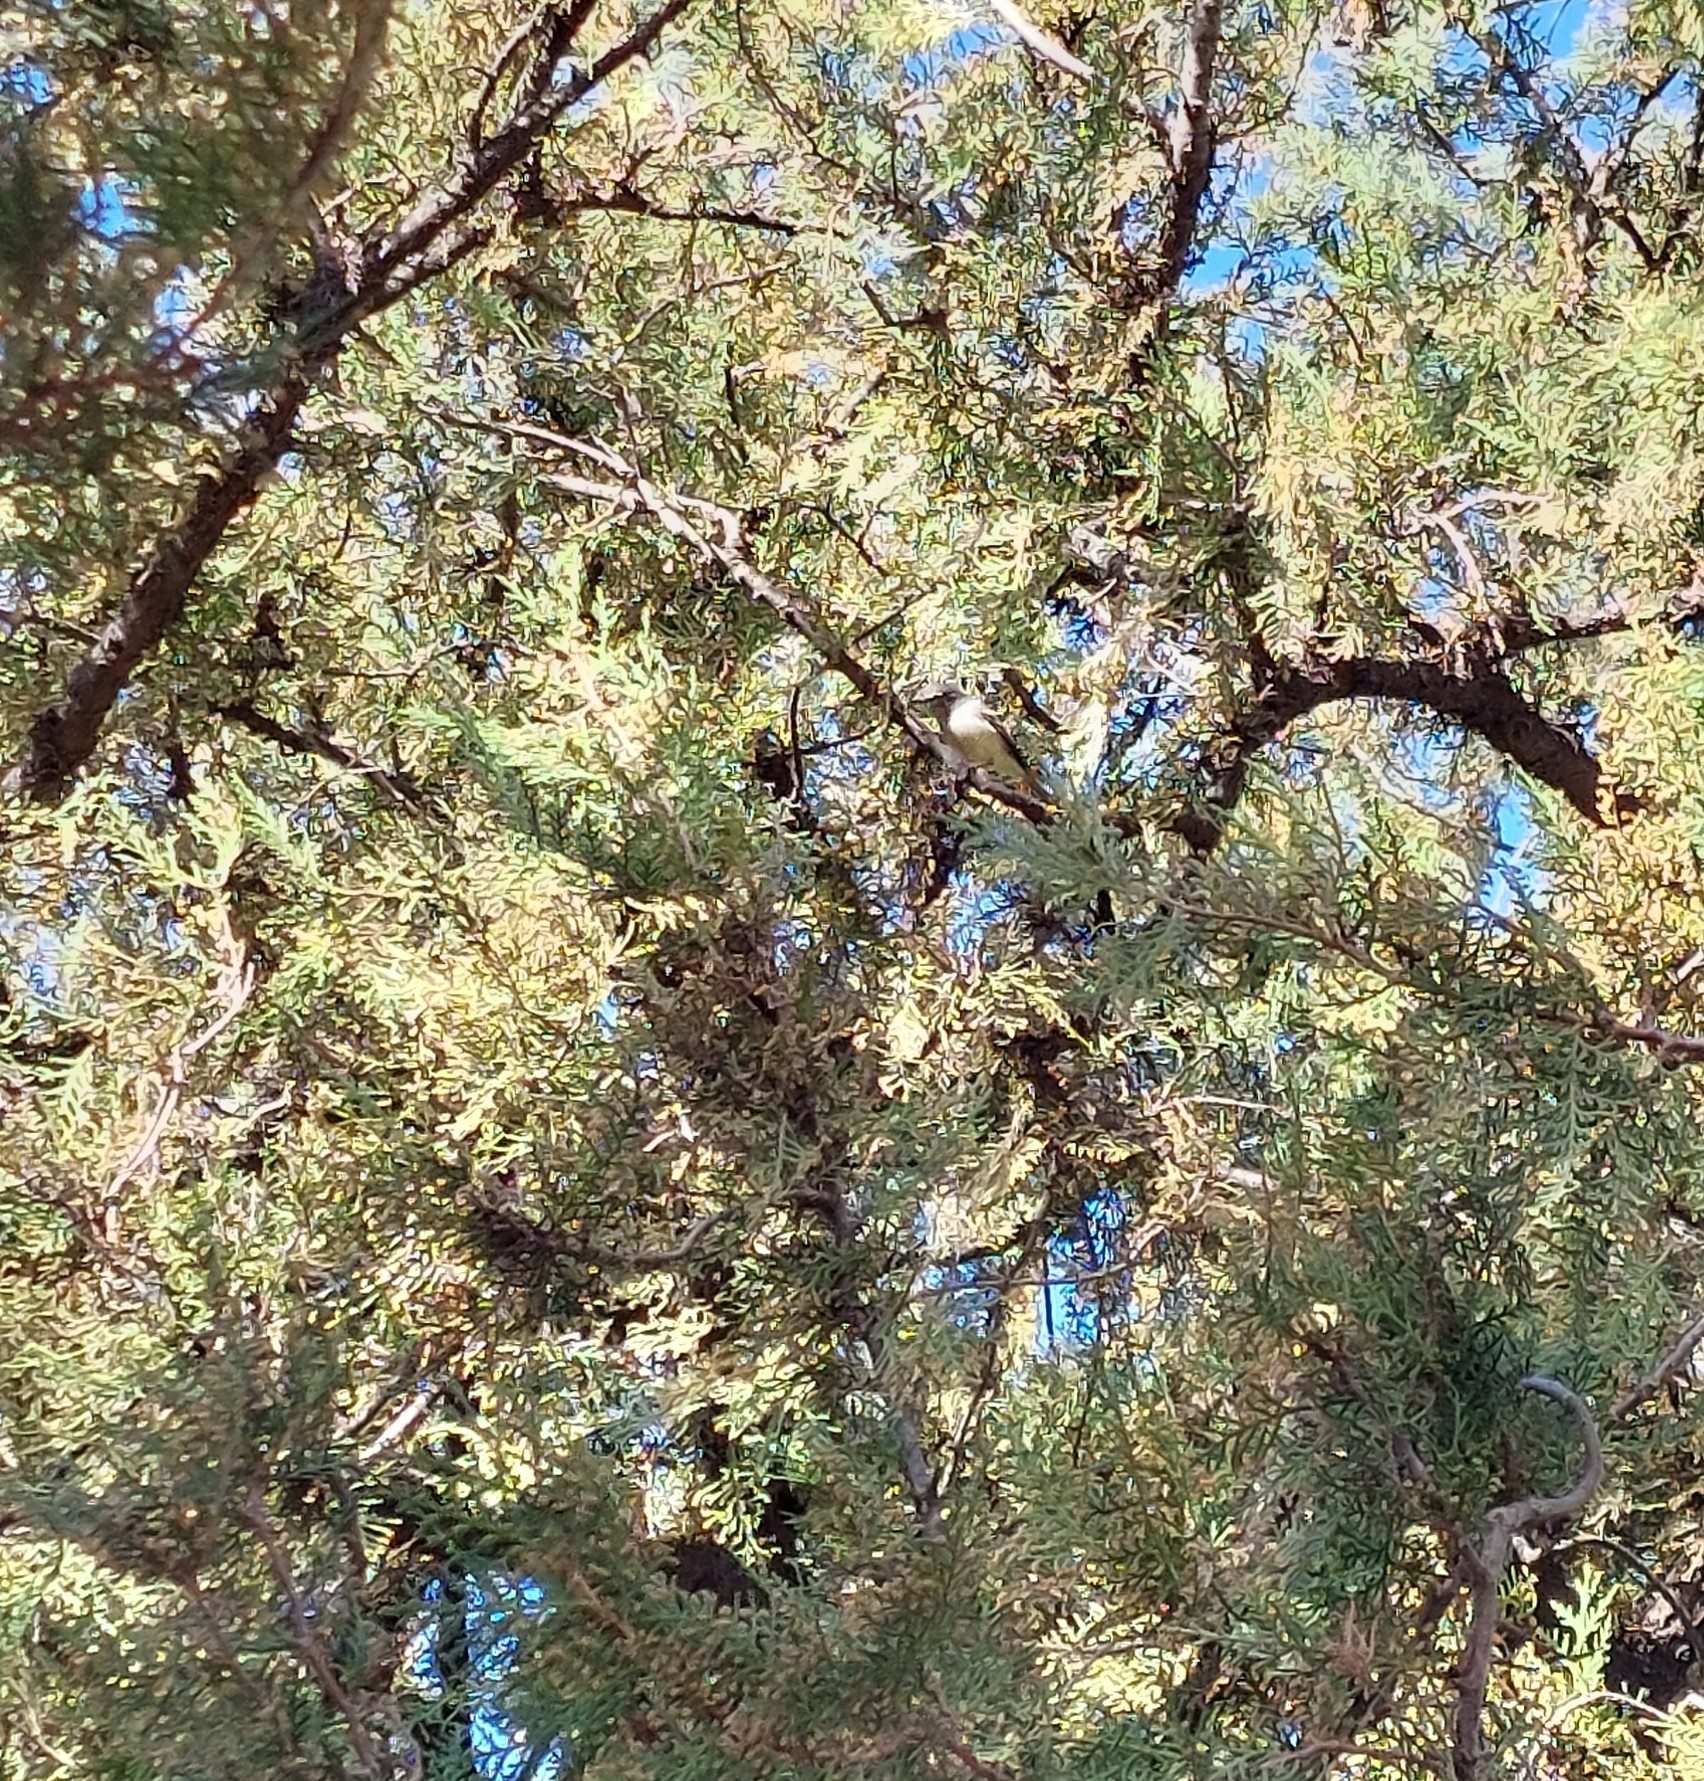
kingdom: Animalia
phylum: Chordata
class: Aves
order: Passeriformes
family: Tyrannidae
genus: Serpophaga
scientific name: Serpophaga subcristata
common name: White-crested tyrannulet
